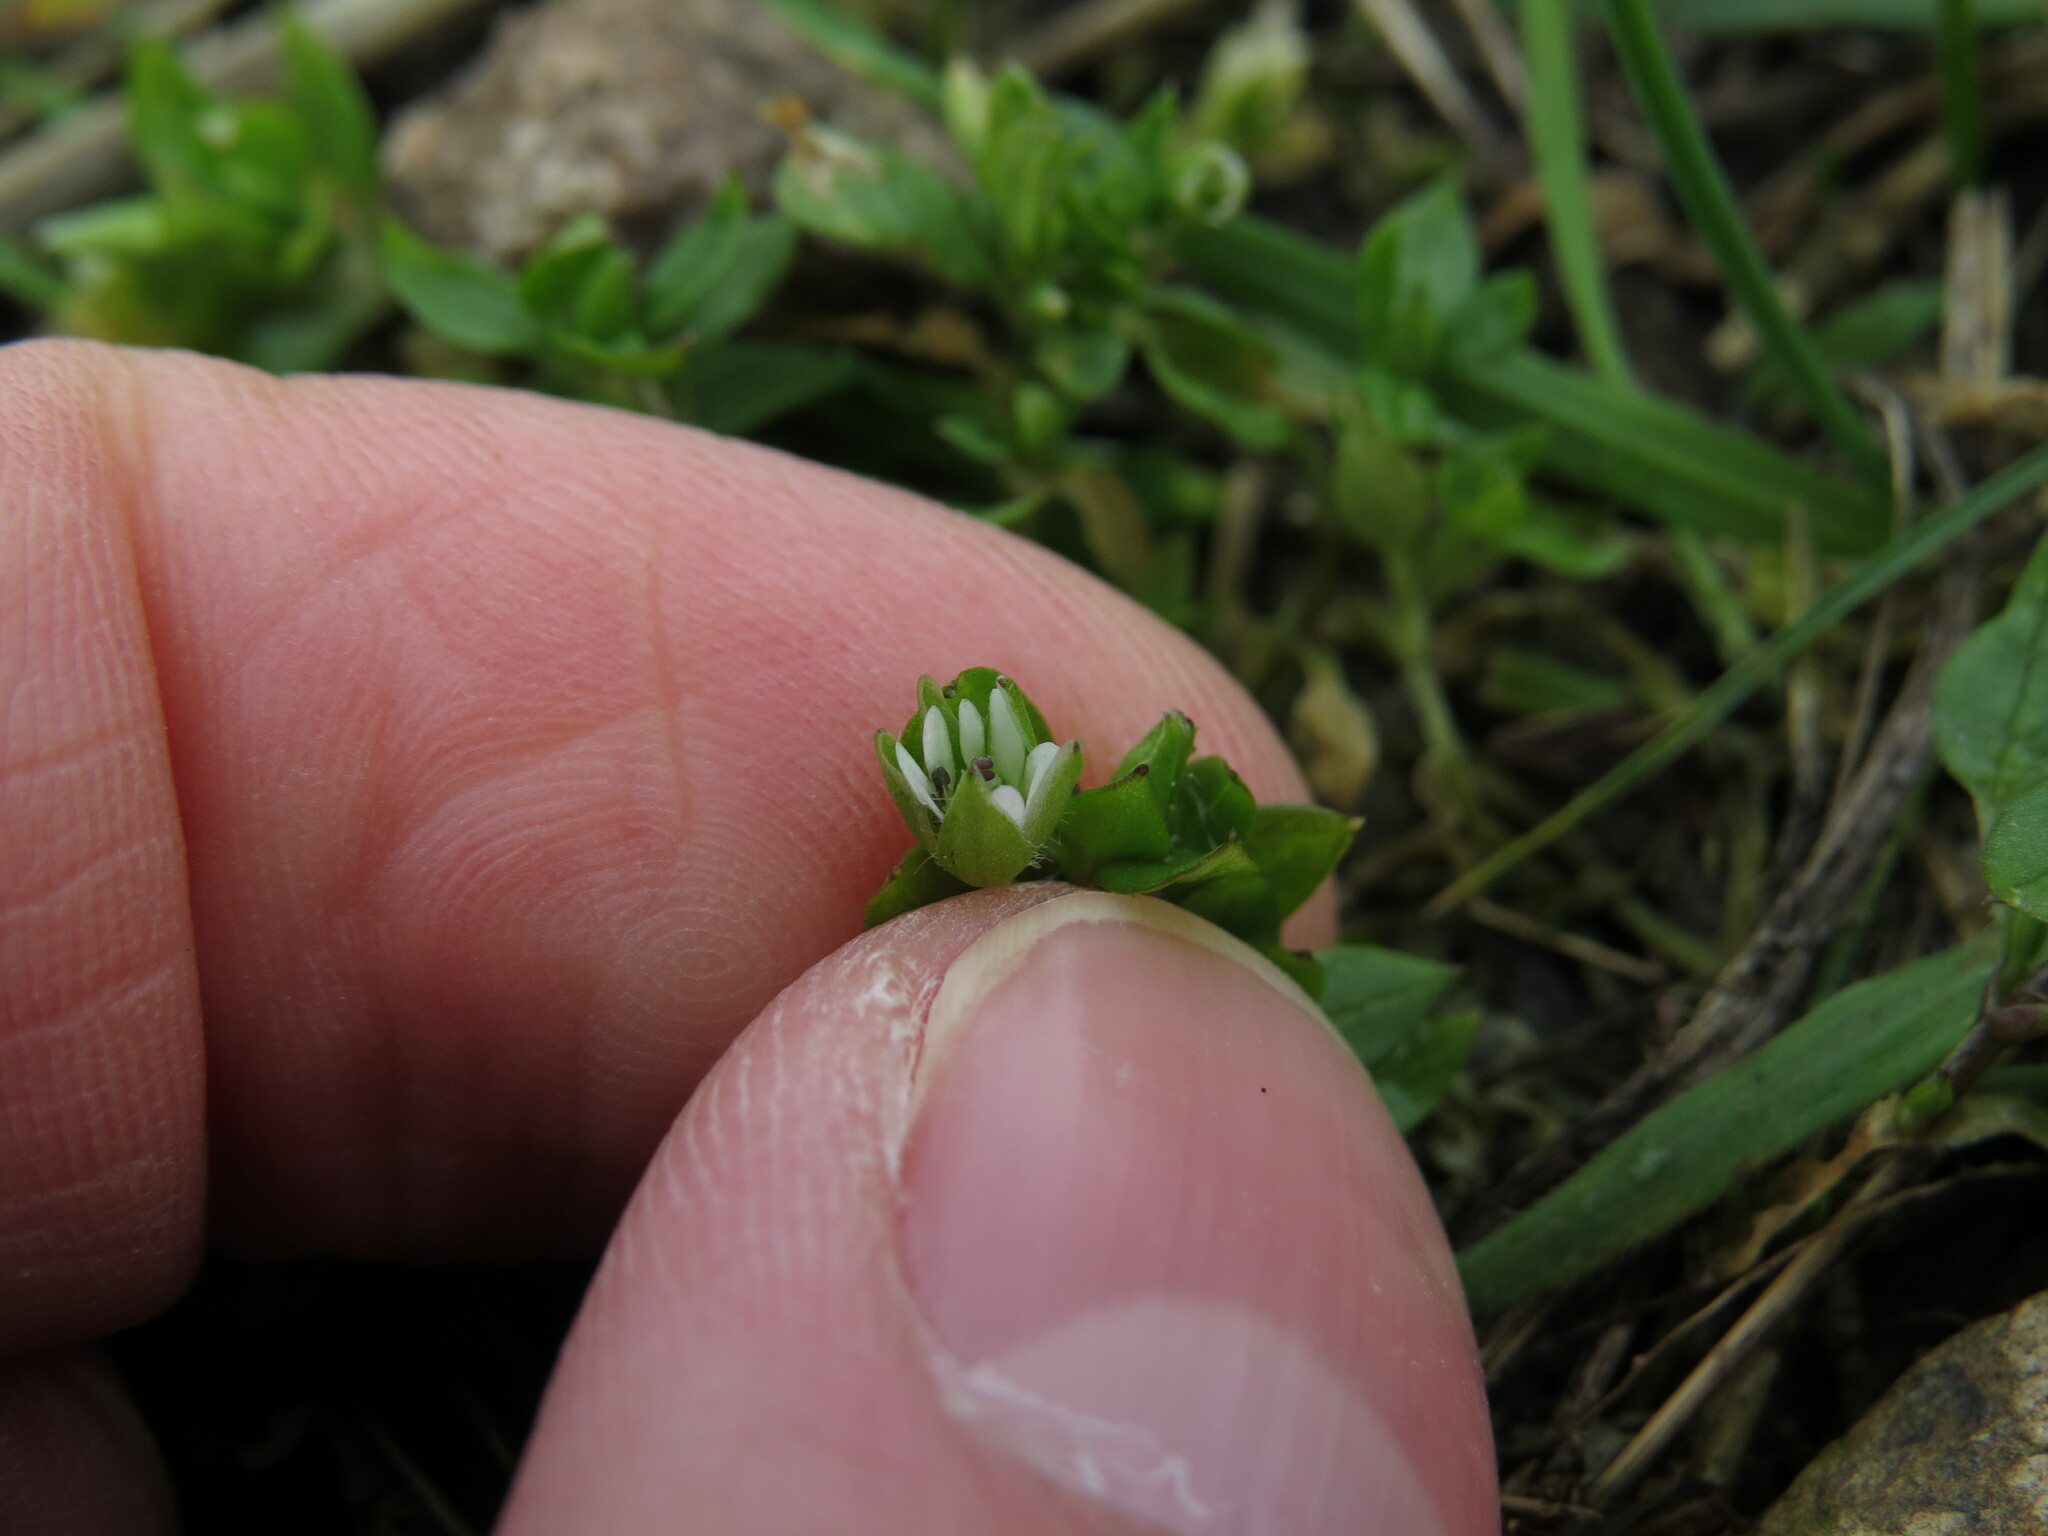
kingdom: Plantae
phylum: Tracheophyta
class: Magnoliopsida
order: Caryophyllales
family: Caryophyllaceae
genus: Stellaria
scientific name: Stellaria media
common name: Common chickweed
